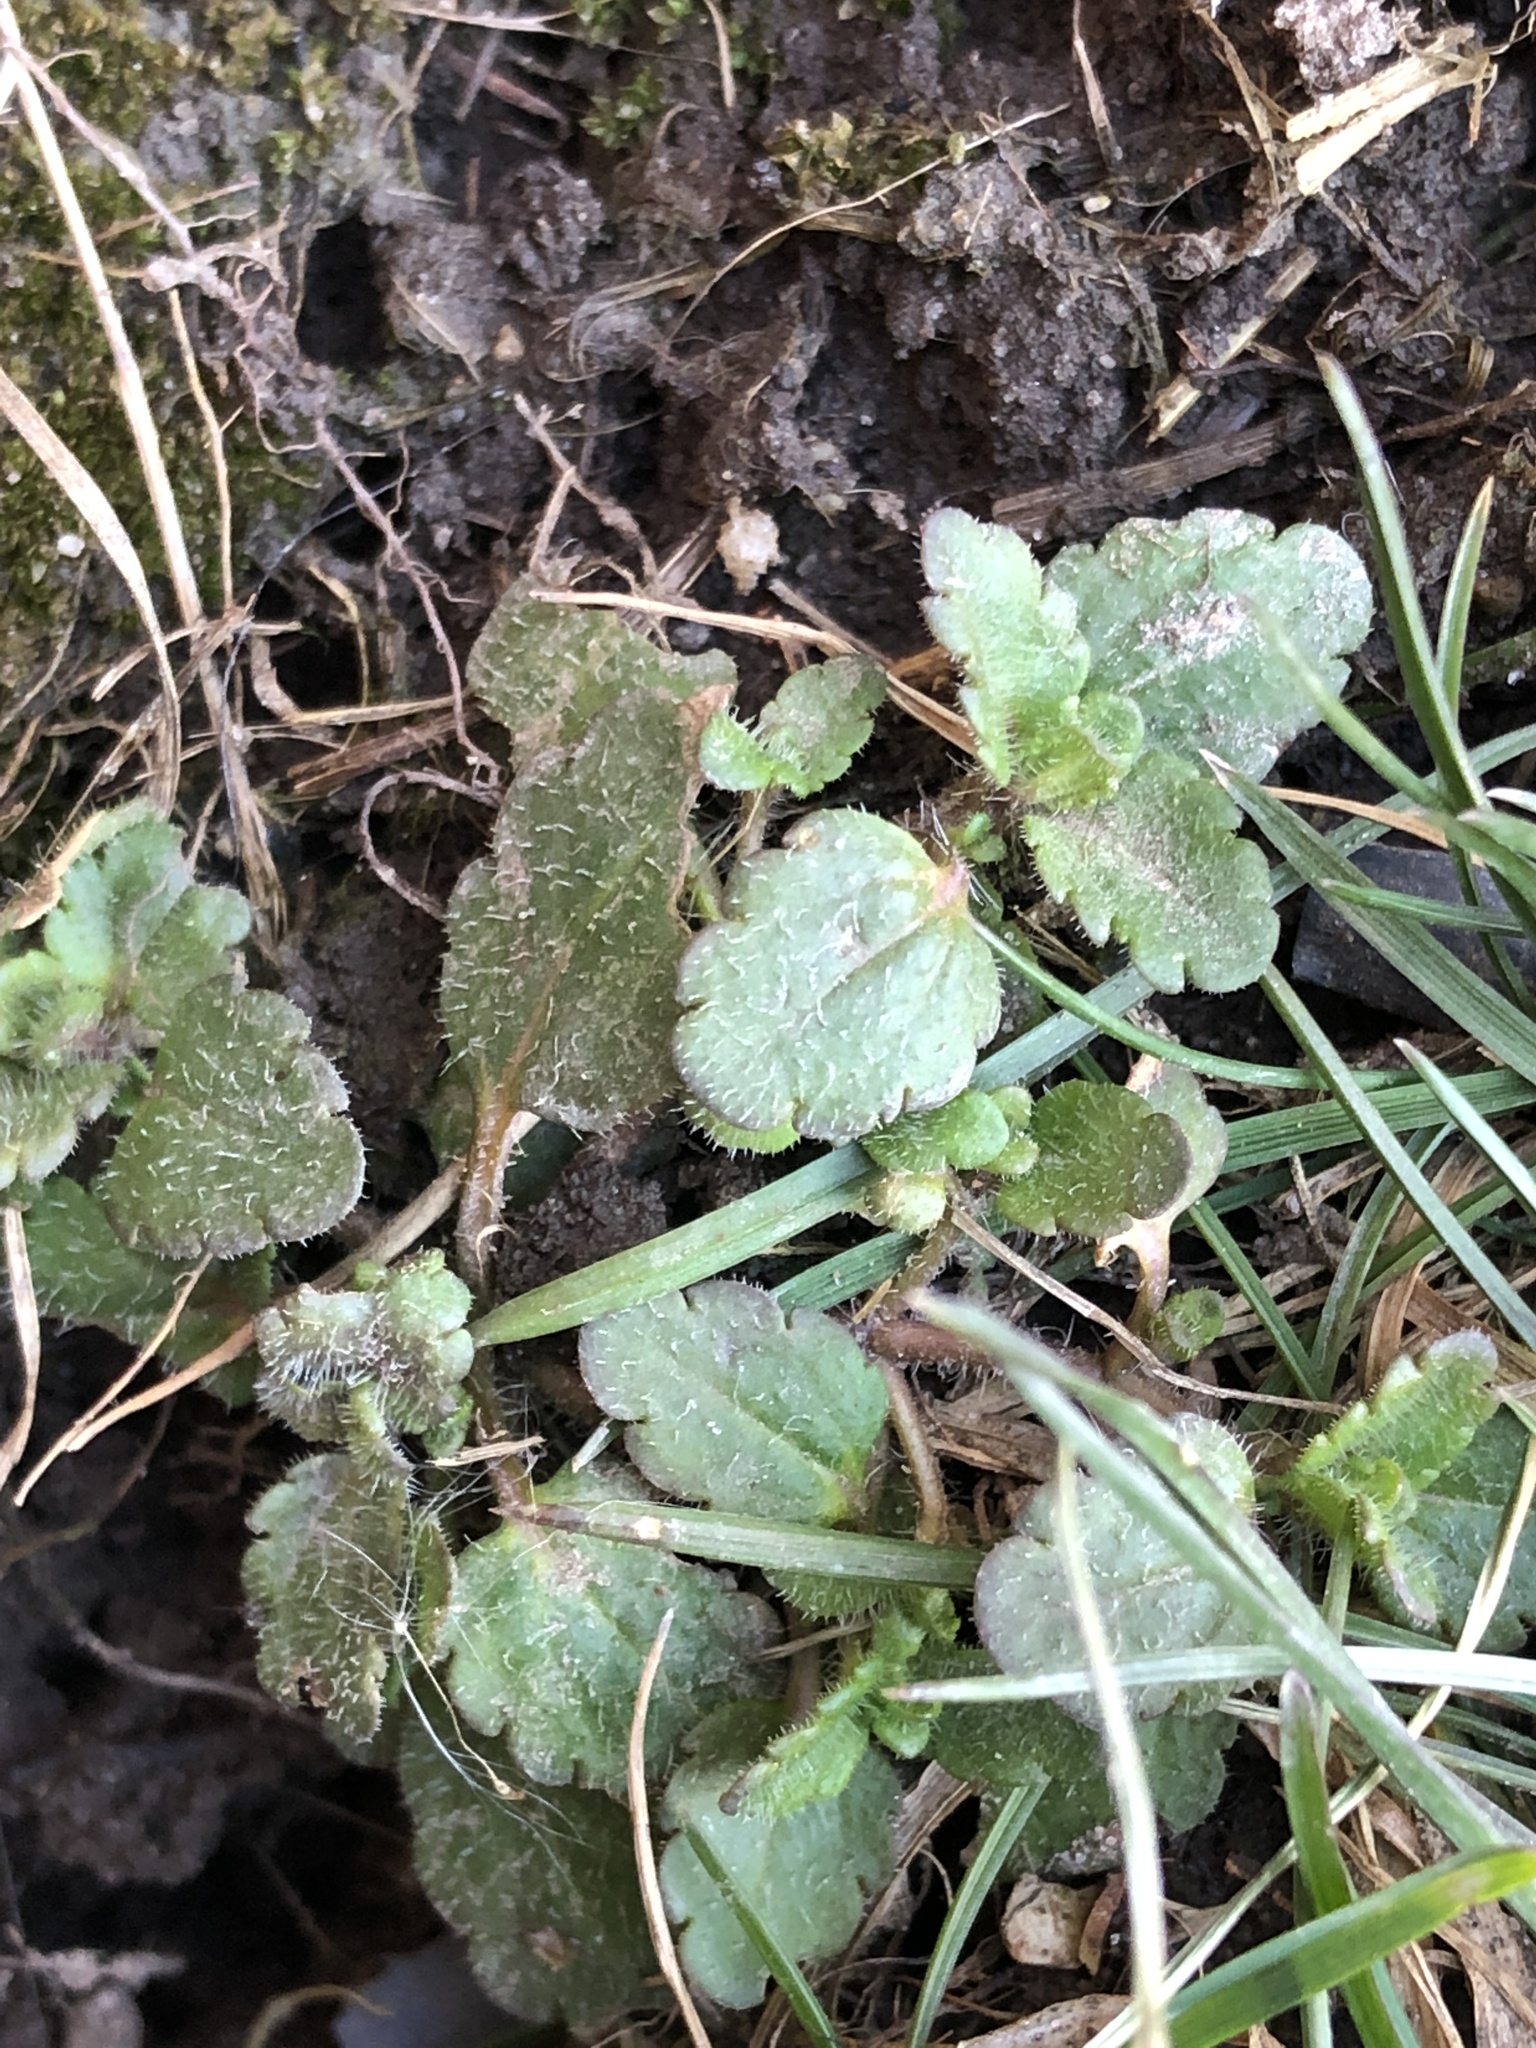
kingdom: Plantae
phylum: Tracheophyta
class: Magnoliopsida
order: Lamiales
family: Plantaginaceae
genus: Veronica
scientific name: Veronica persica
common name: Common field-speedwell
